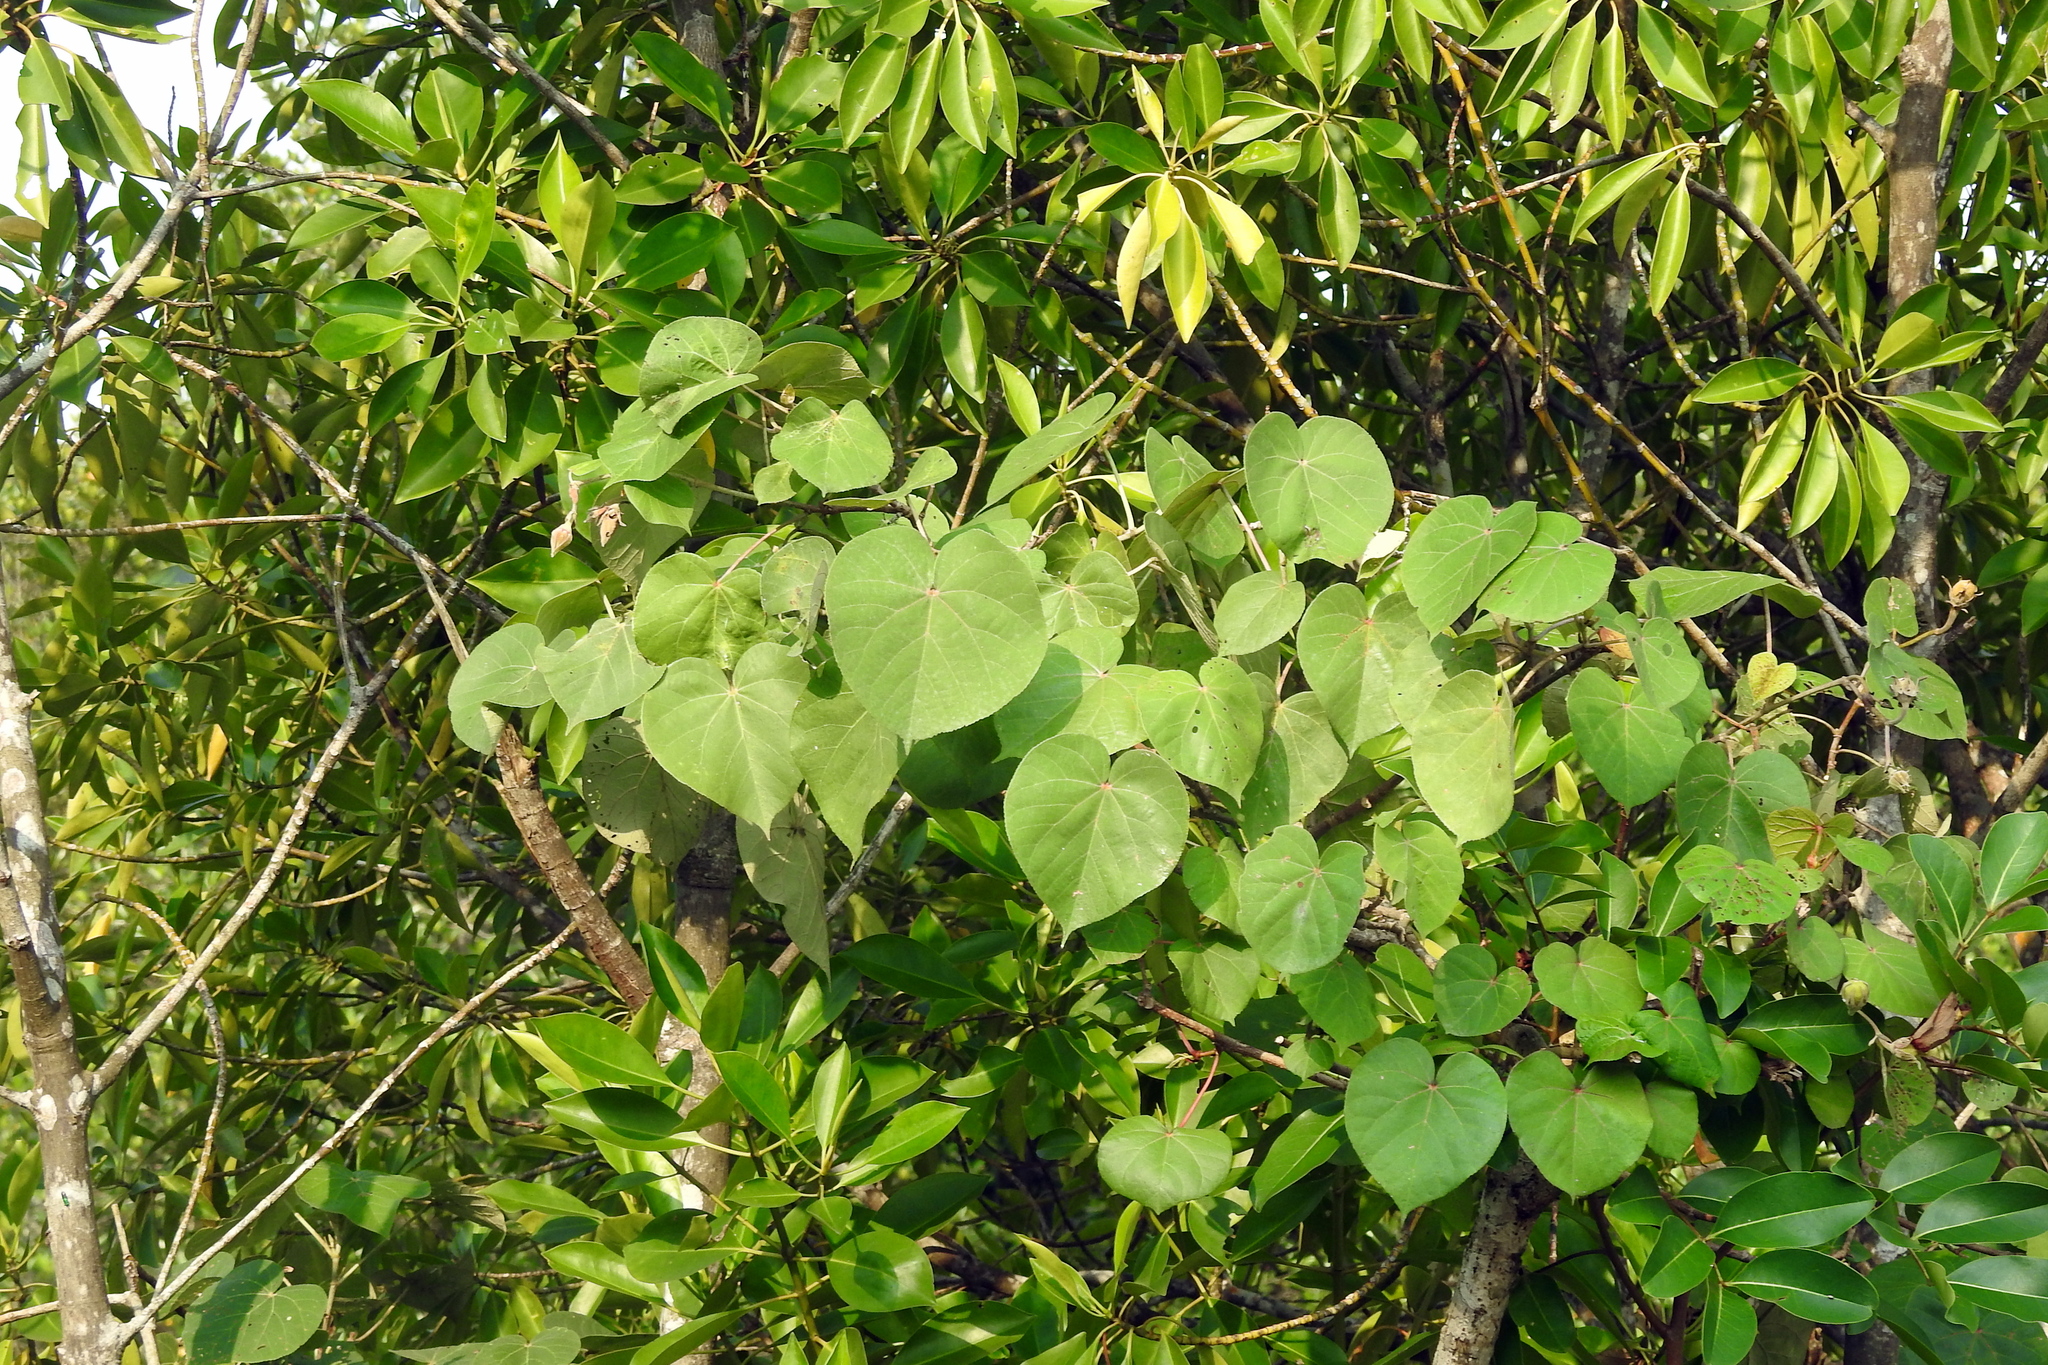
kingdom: Plantae
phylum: Tracheophyta
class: Magnoliopsida
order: Malvales
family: Malvaceae
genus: Talipariti
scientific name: Talipariti tiliaceum
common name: Sea hibiscus
